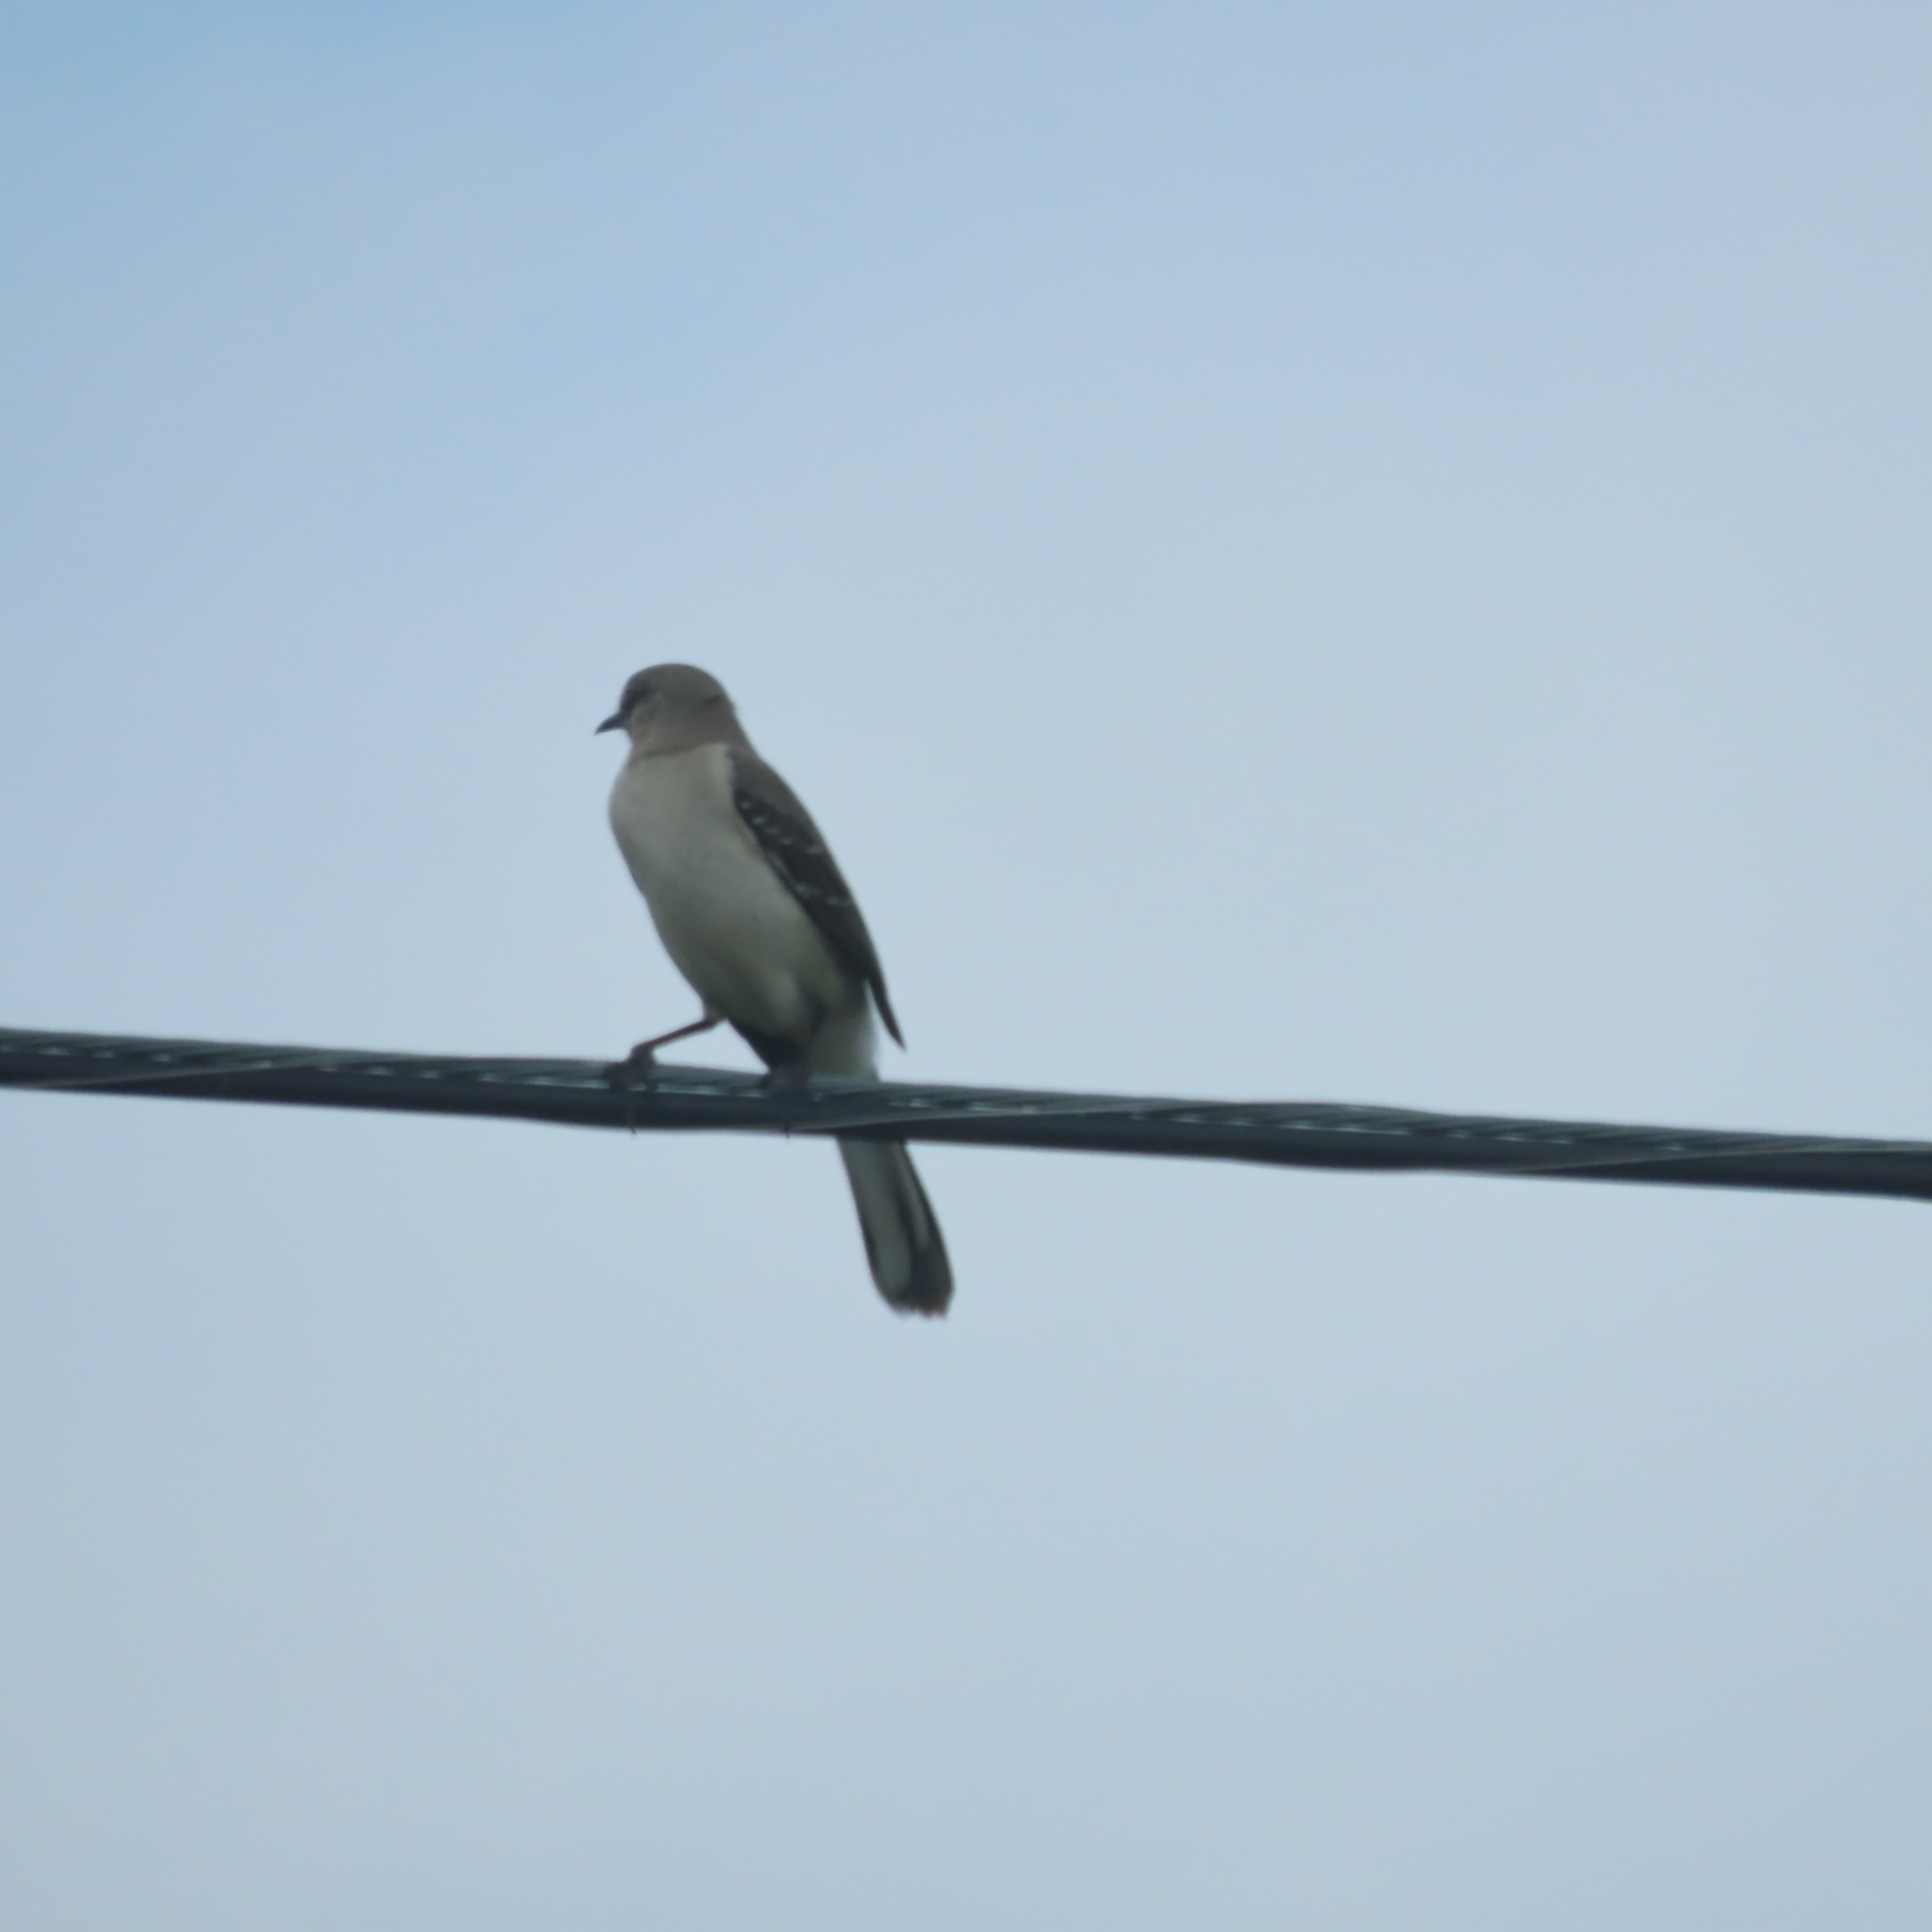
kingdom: Animalia
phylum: Chordata
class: Aves
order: Passeriformes
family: Mimidae
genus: Mimus
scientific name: Mimus polyglottos
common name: Northern mockingbird
